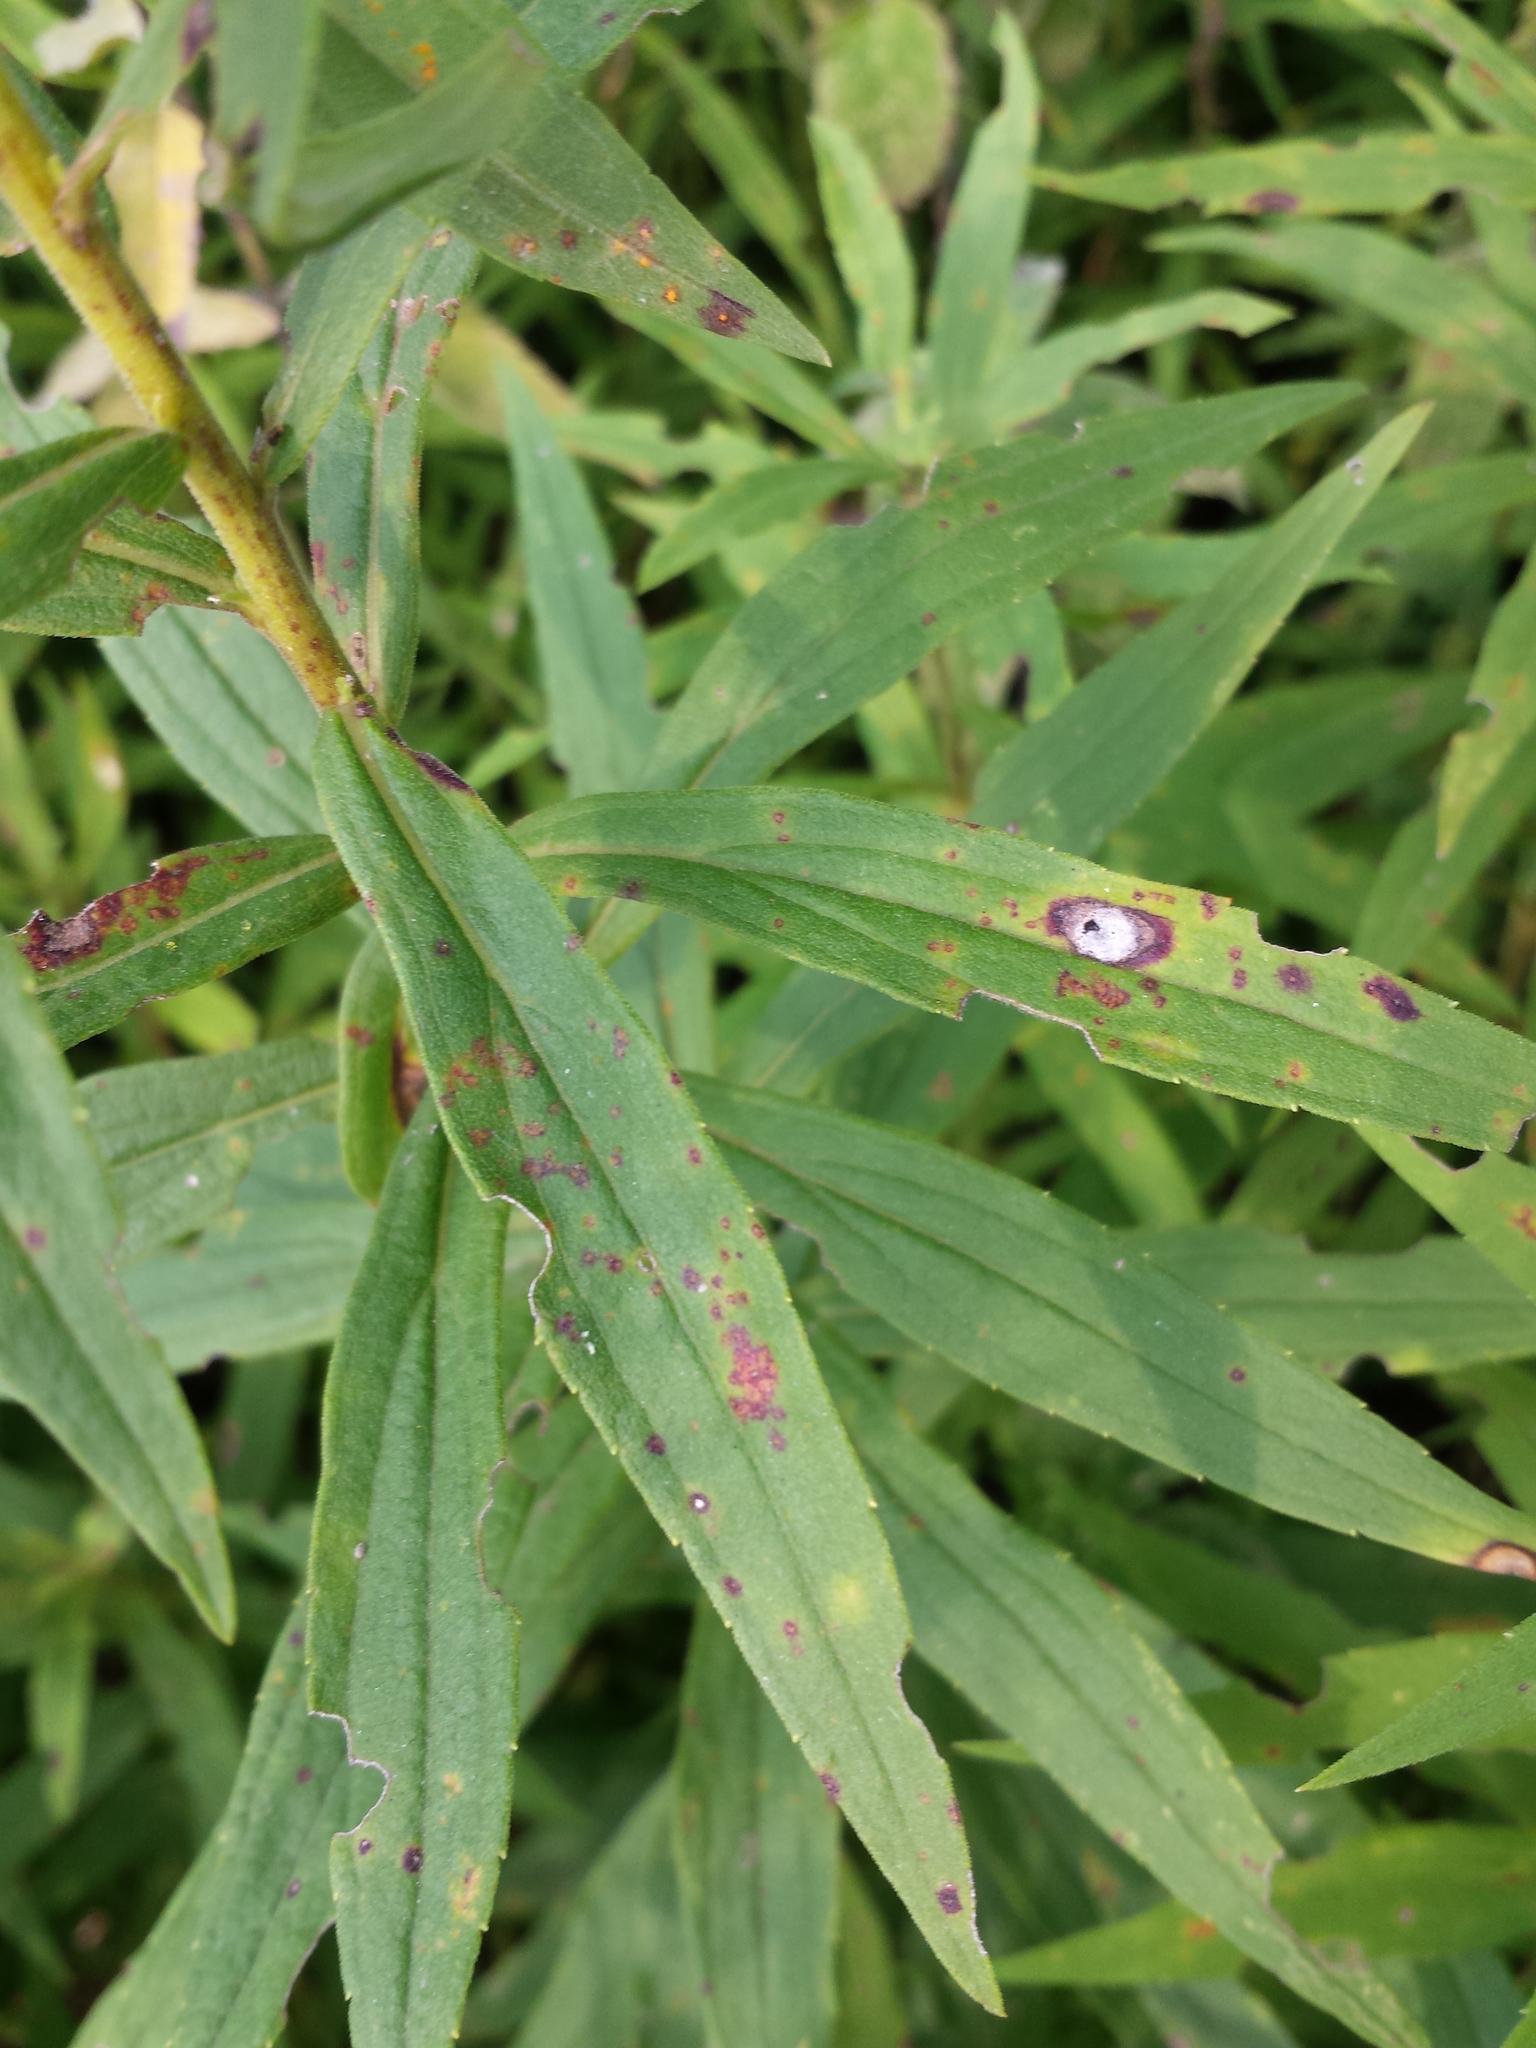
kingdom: Animalia
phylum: Arthropoda
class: Insecta
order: Diptera
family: Cecidomyiidae
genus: Asteromyia
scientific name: Asteromyia carbonifera
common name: Carbonifera goldenrod gall midge
